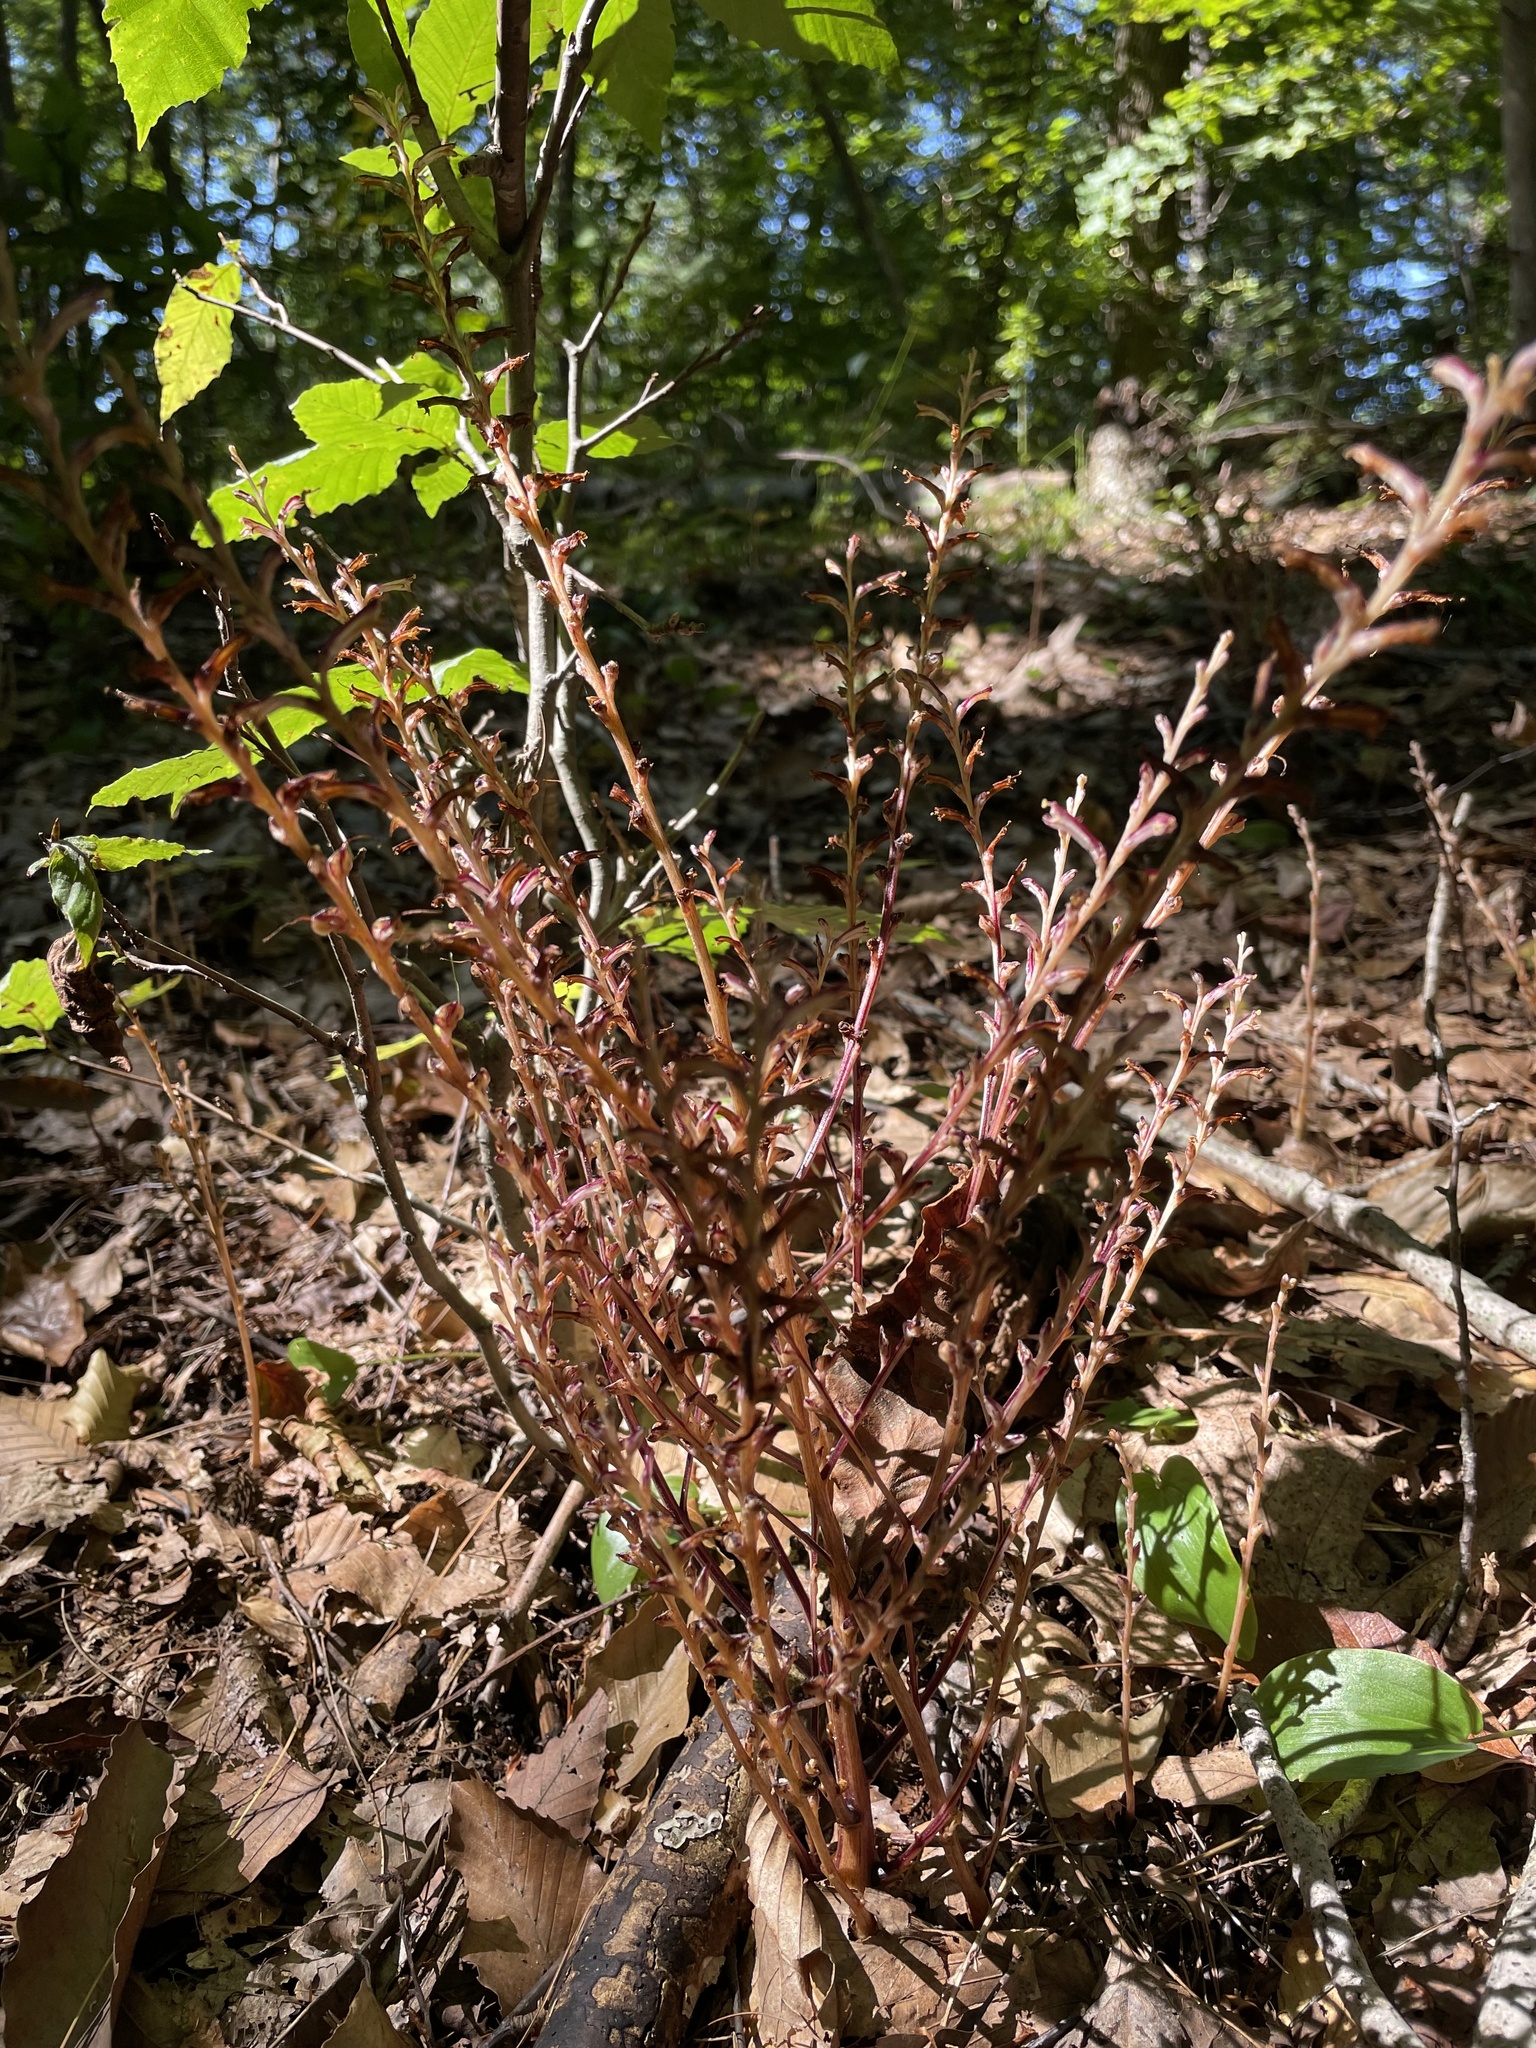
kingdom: Plantae
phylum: Tracheophyta
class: Magnoliopsida
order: Lamiales
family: Orobanchaceae
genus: Epifagus
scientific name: Epifagus virginiana
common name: Beechdrops
